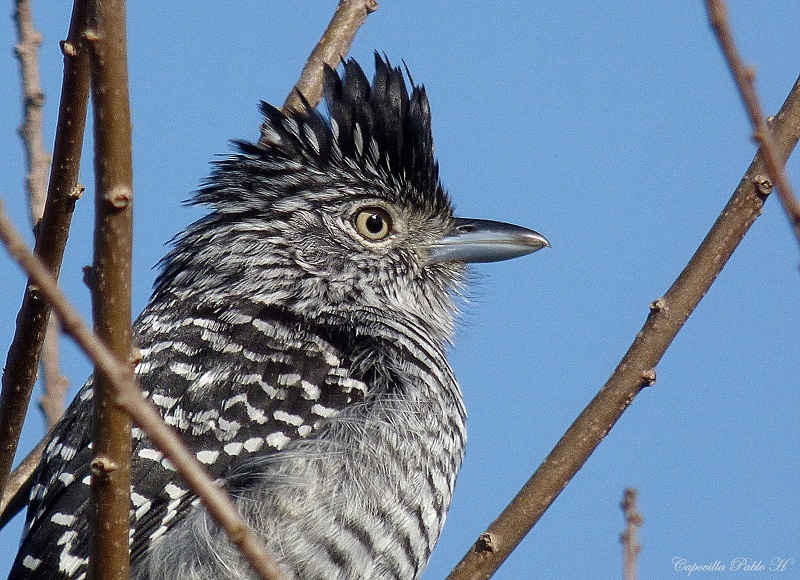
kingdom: Animalia
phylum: Chordata
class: Aves
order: Passeriformes
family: Thamnophilidae
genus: Thamnophilus
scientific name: Thamnophilus doliatus
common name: Barred antshrike
